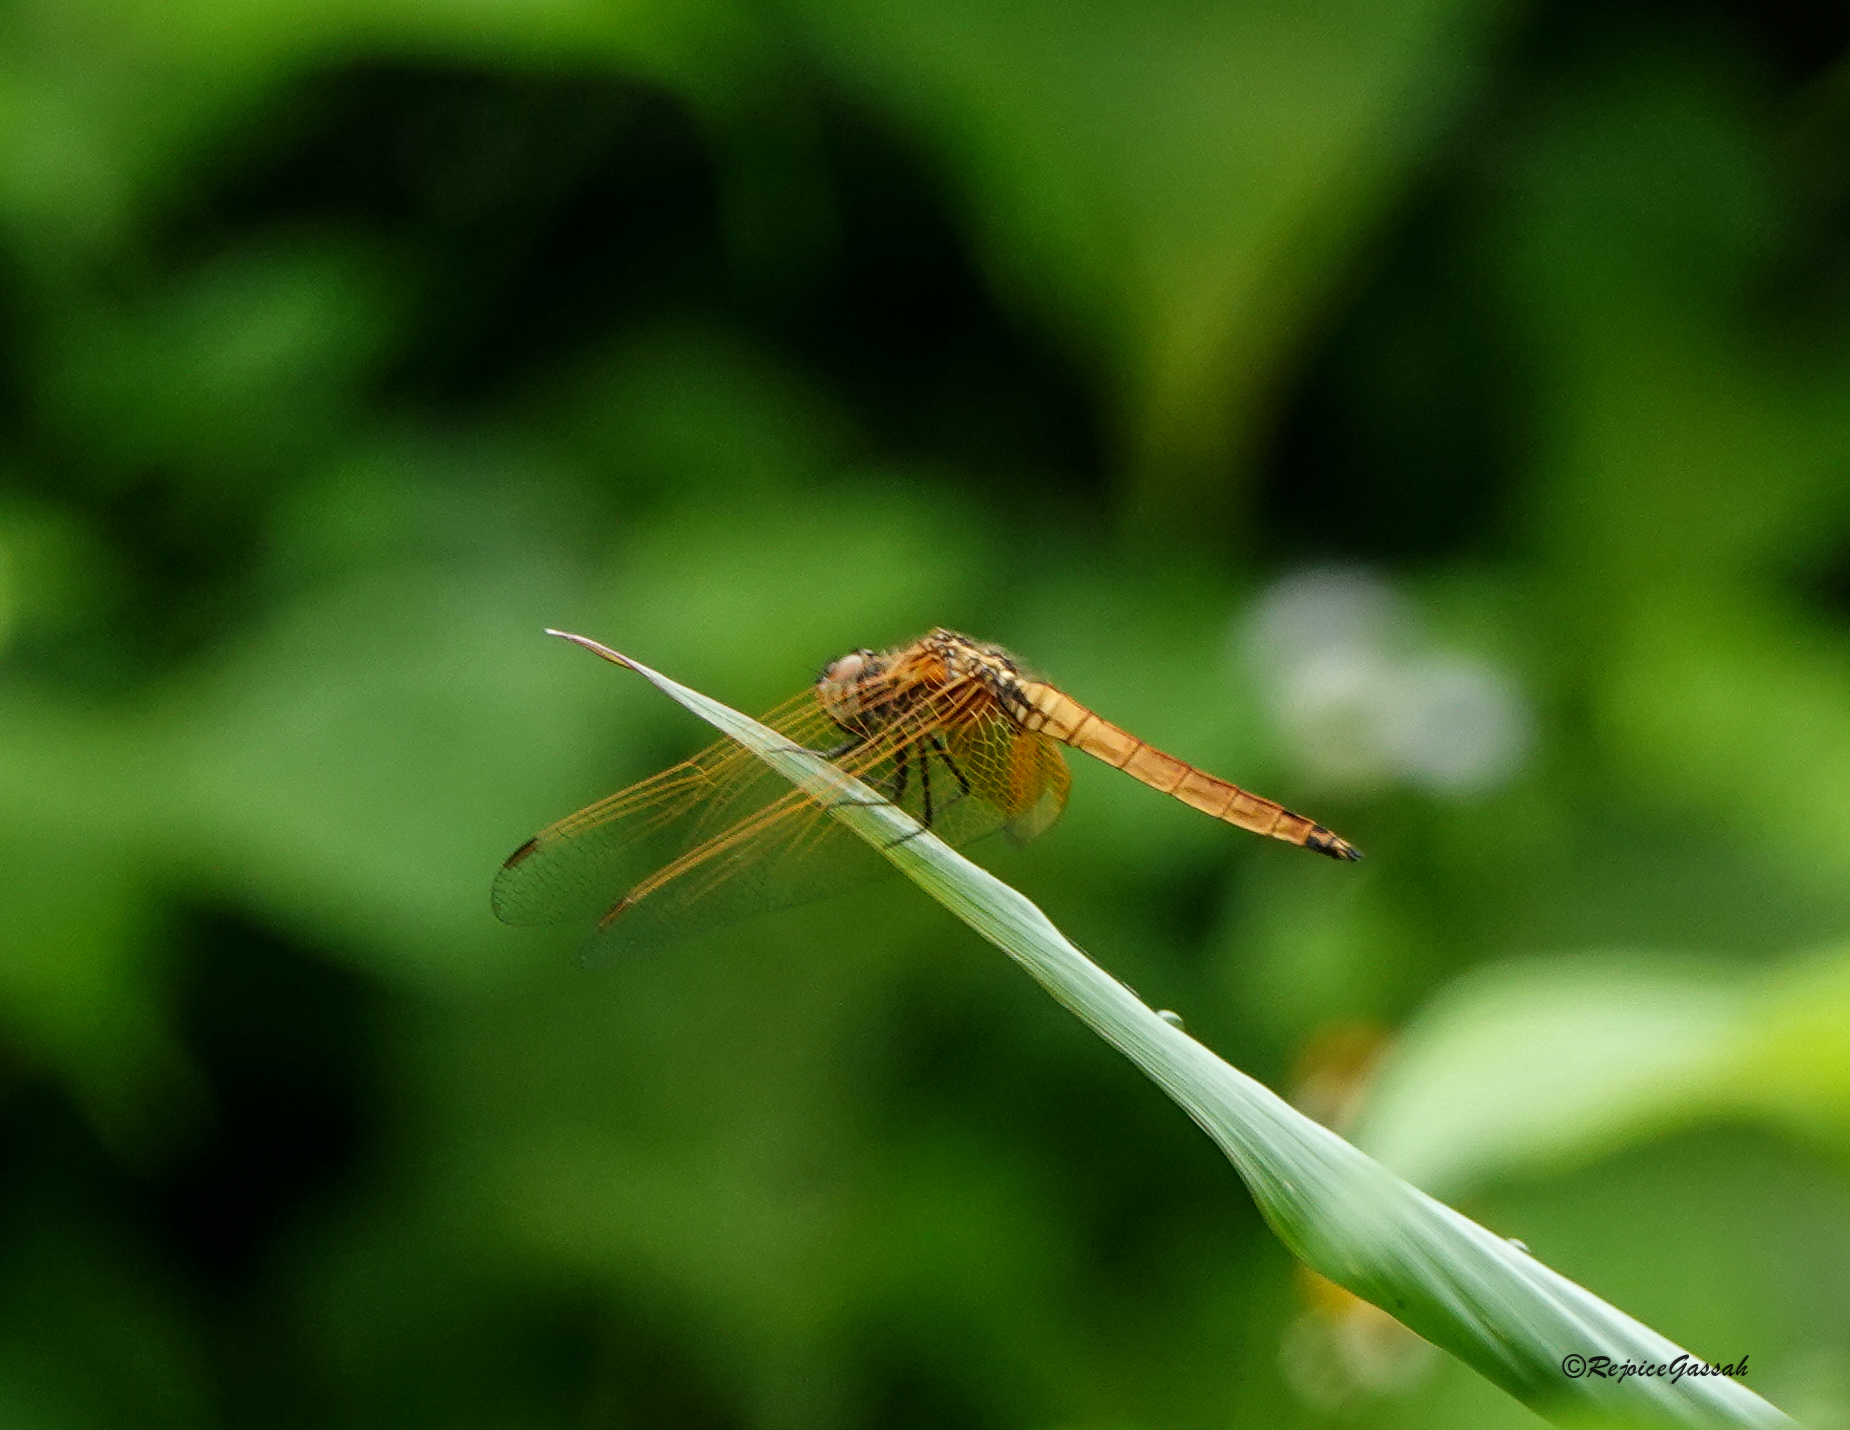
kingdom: Animalia
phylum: Arthropoda
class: Insecta
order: Odonata
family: Libellulidae
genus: Trithemis
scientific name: Trithemis aurora
